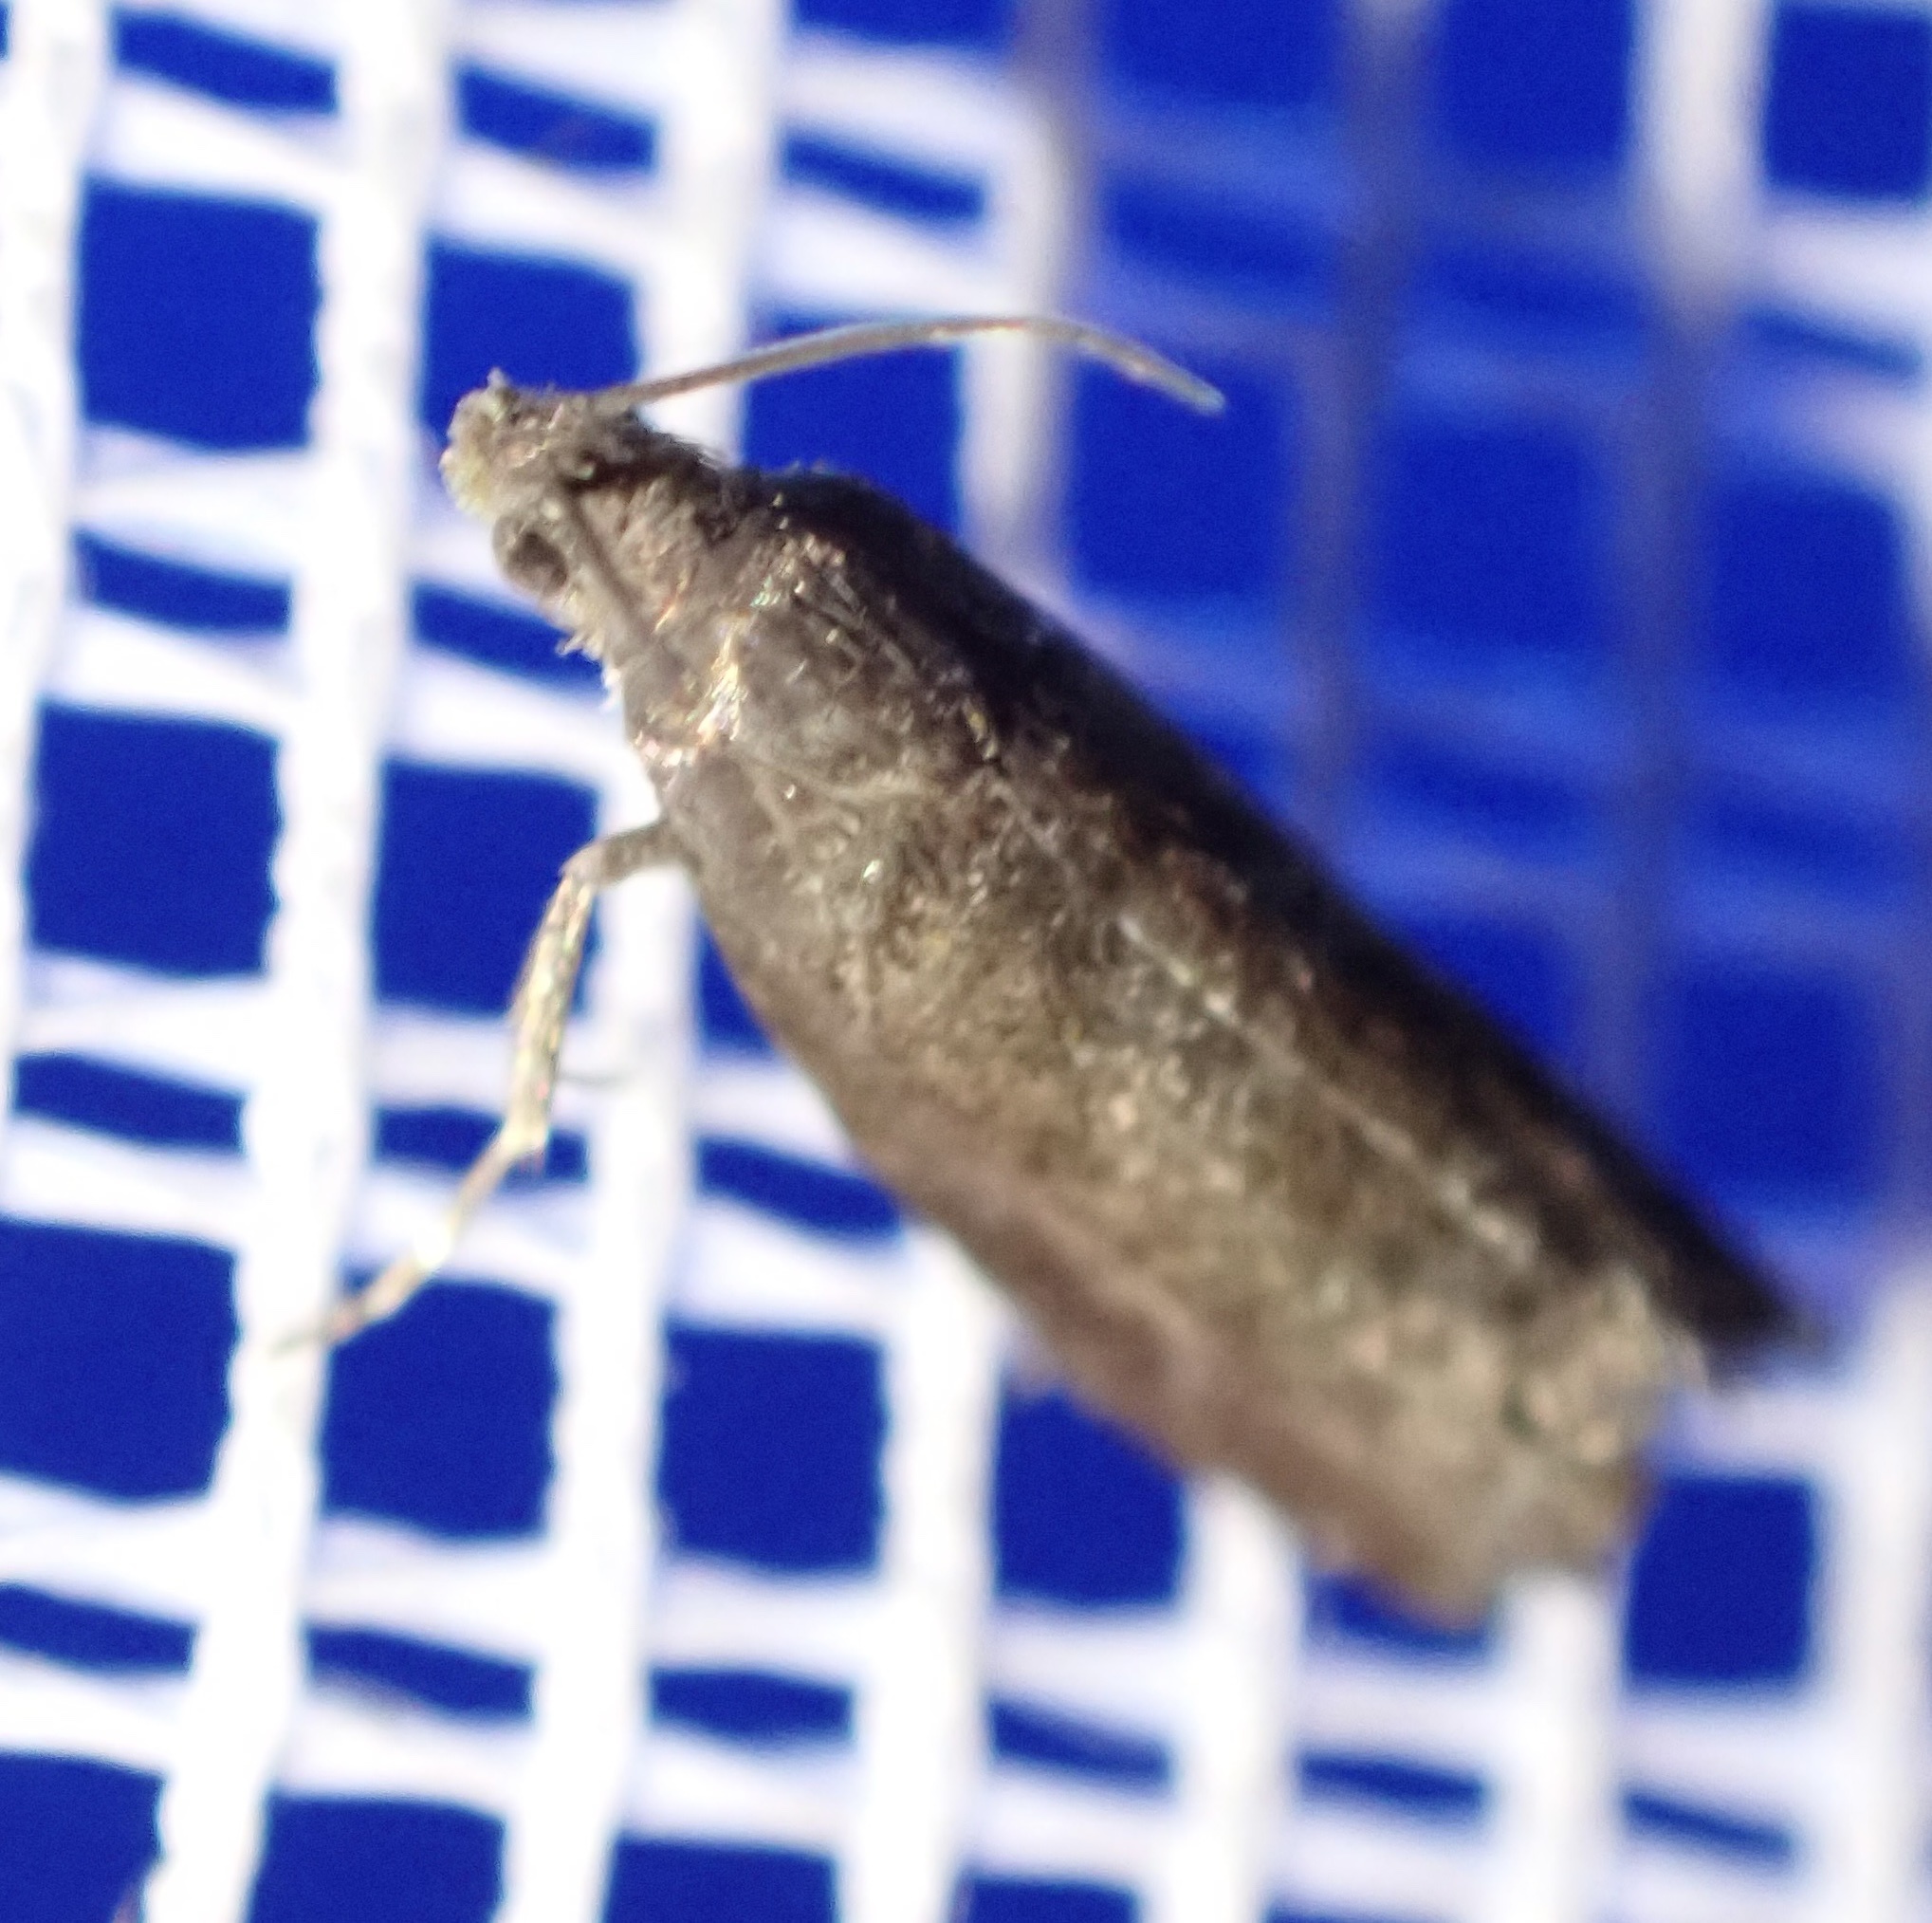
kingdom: Animalia
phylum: Arthropoda
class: Insecta
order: Lepidoptera
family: Noctuidae
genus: Aspila
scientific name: Aspila
